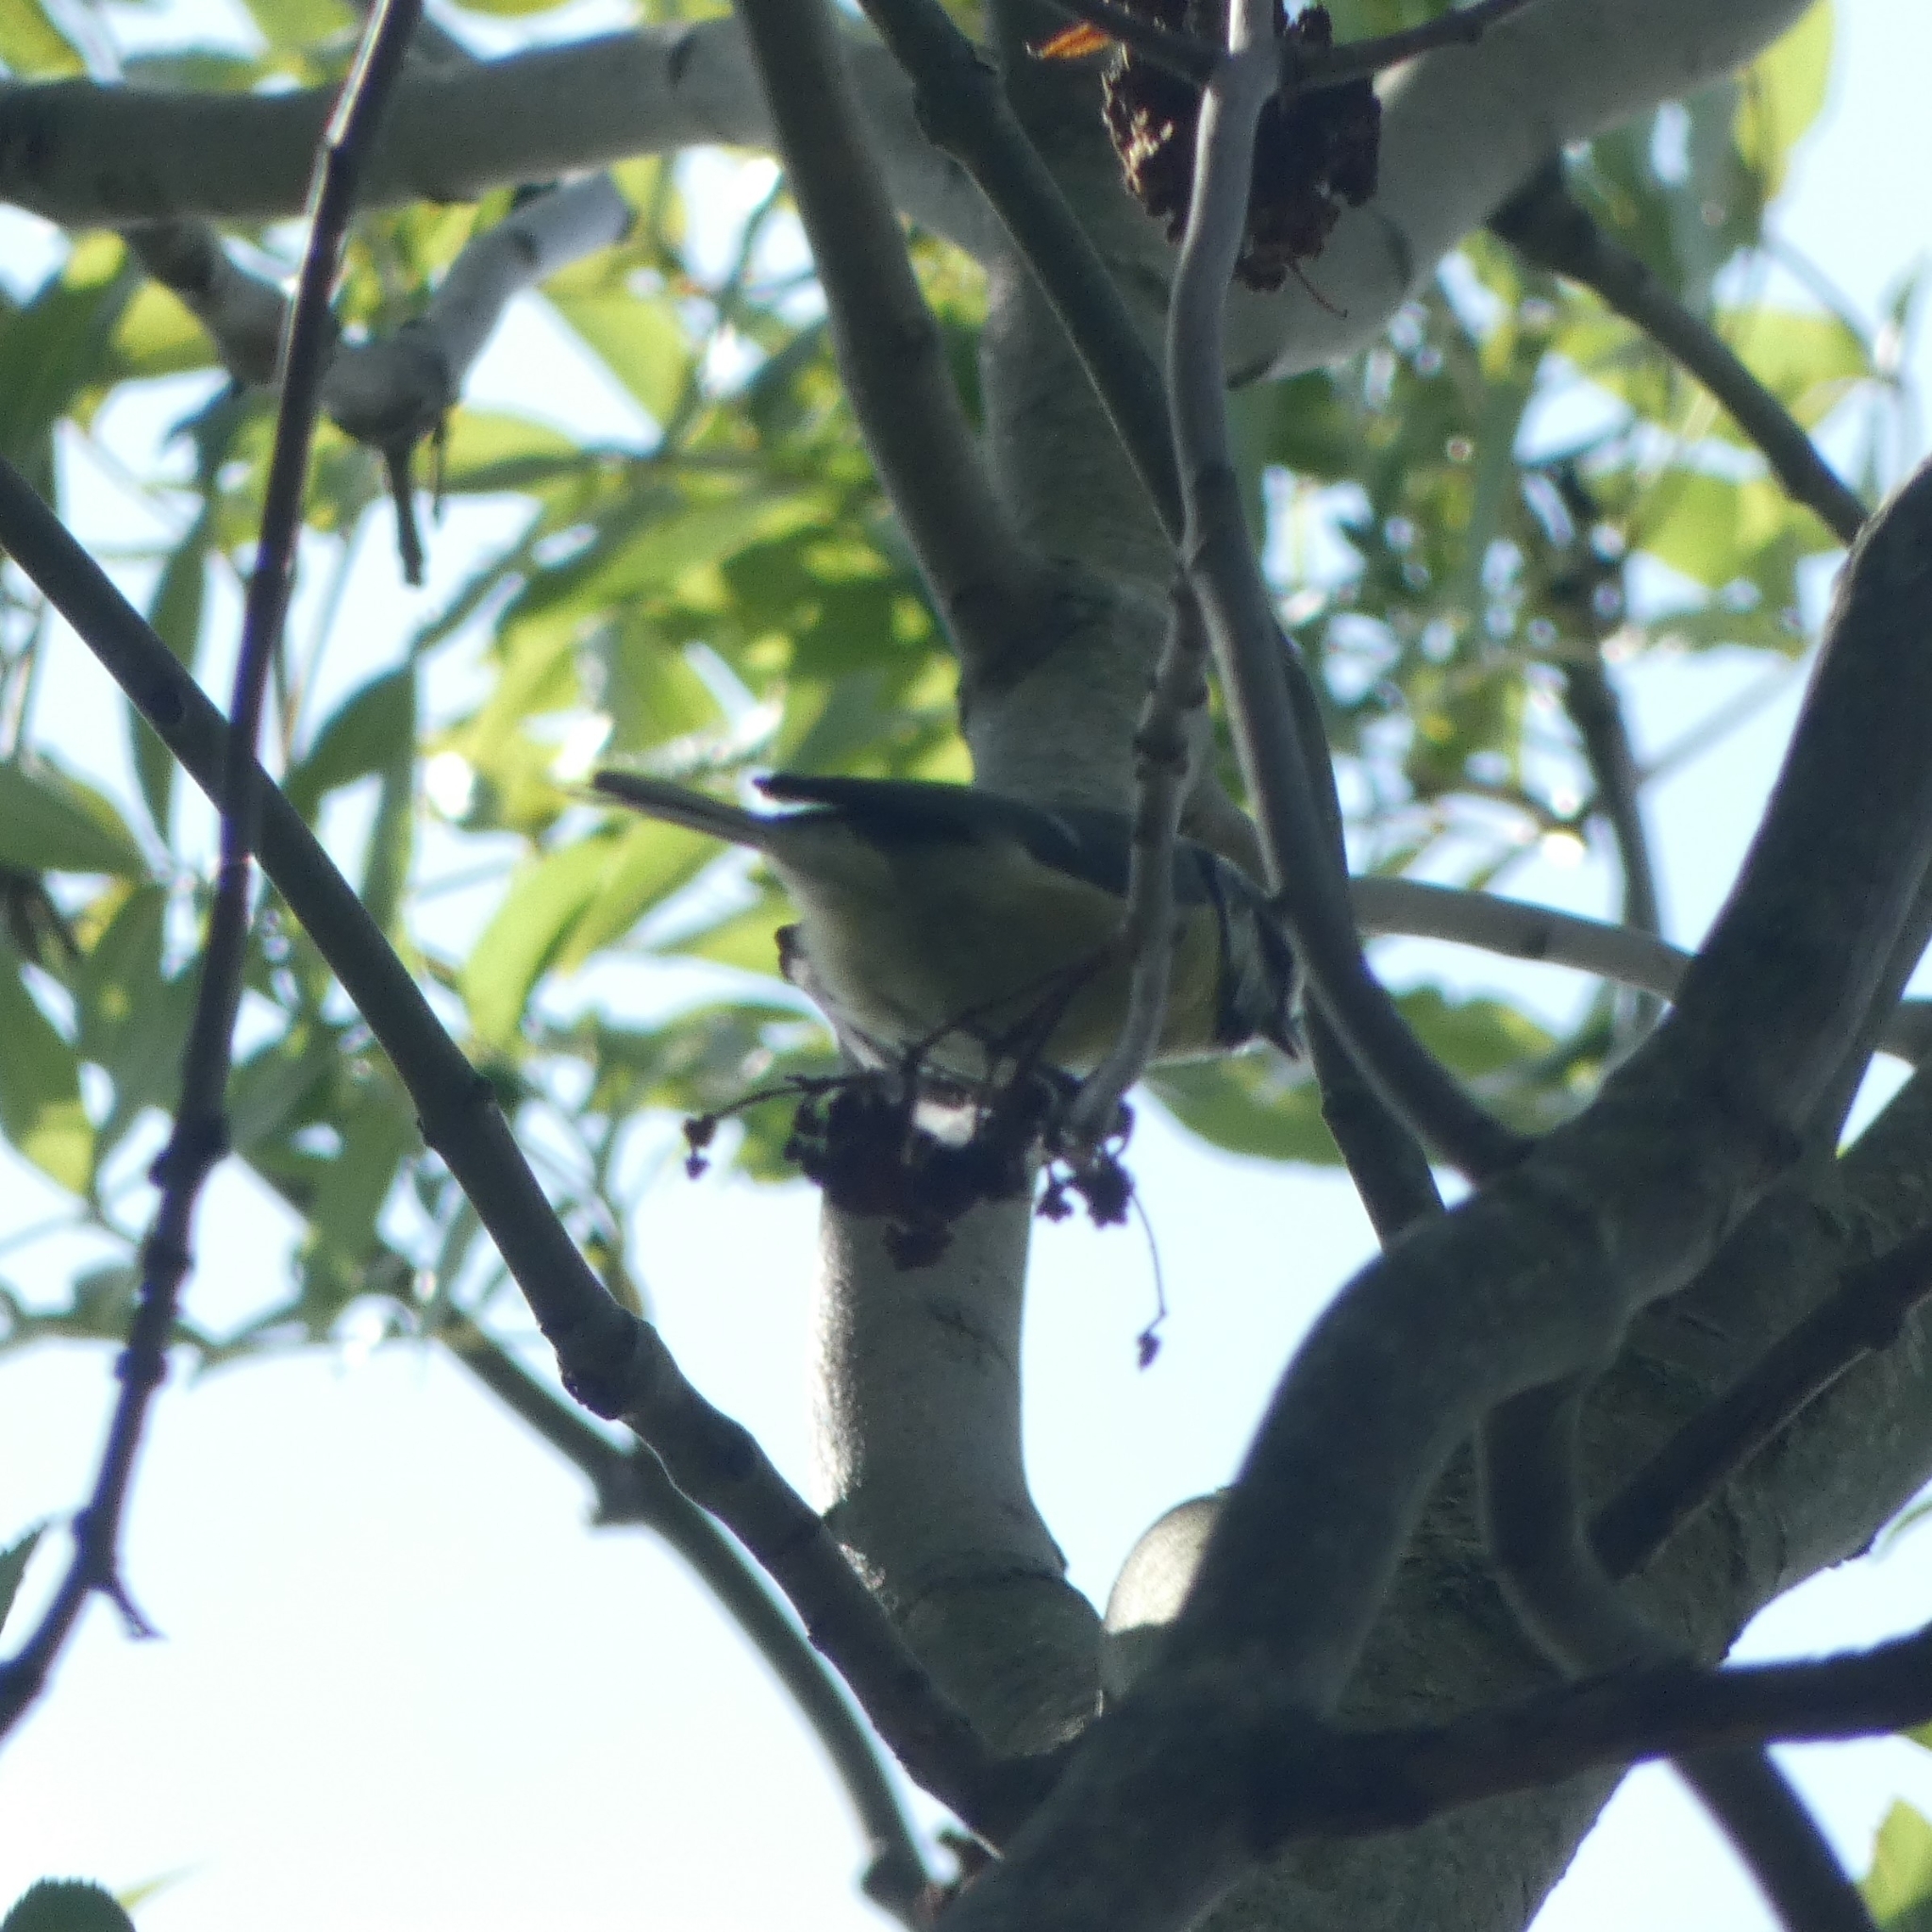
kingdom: Animalia
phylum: Chordata
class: Aves
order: Passeriformes
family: Paridae
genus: Cyanistes
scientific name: Cyanistes caeruleus
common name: Eurasian blue tit
